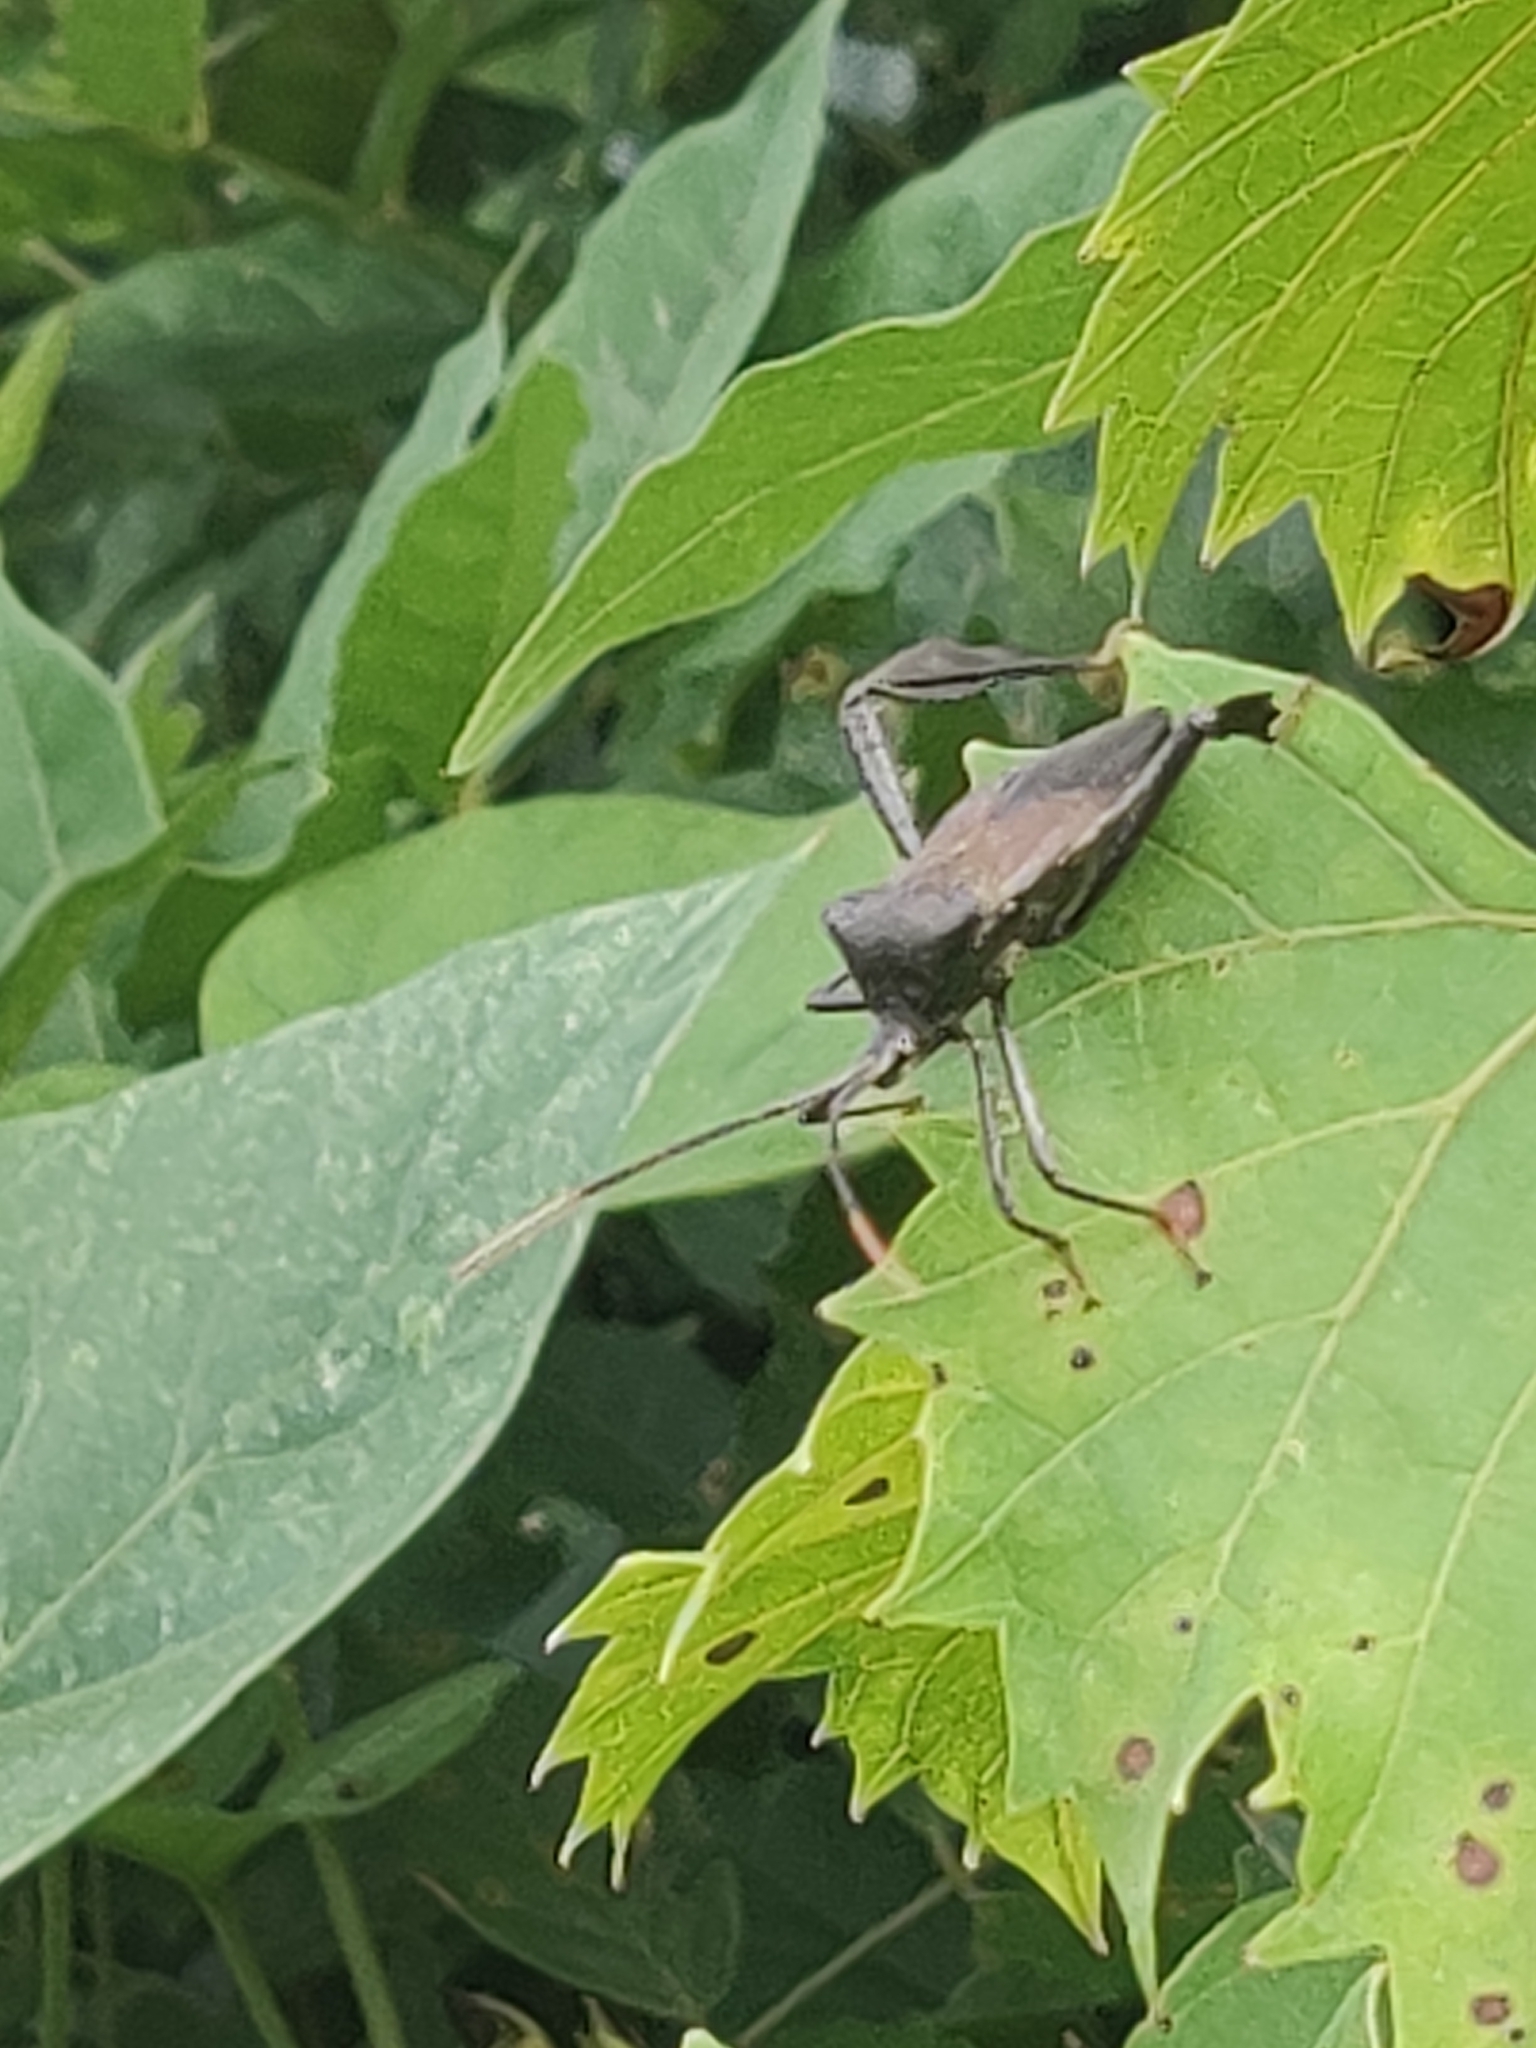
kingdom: Animalia
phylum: Arthropoda
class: Insecta
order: Hemiptera
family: Coreidae
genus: Acanthocephala
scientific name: Acanthocephala femorata
